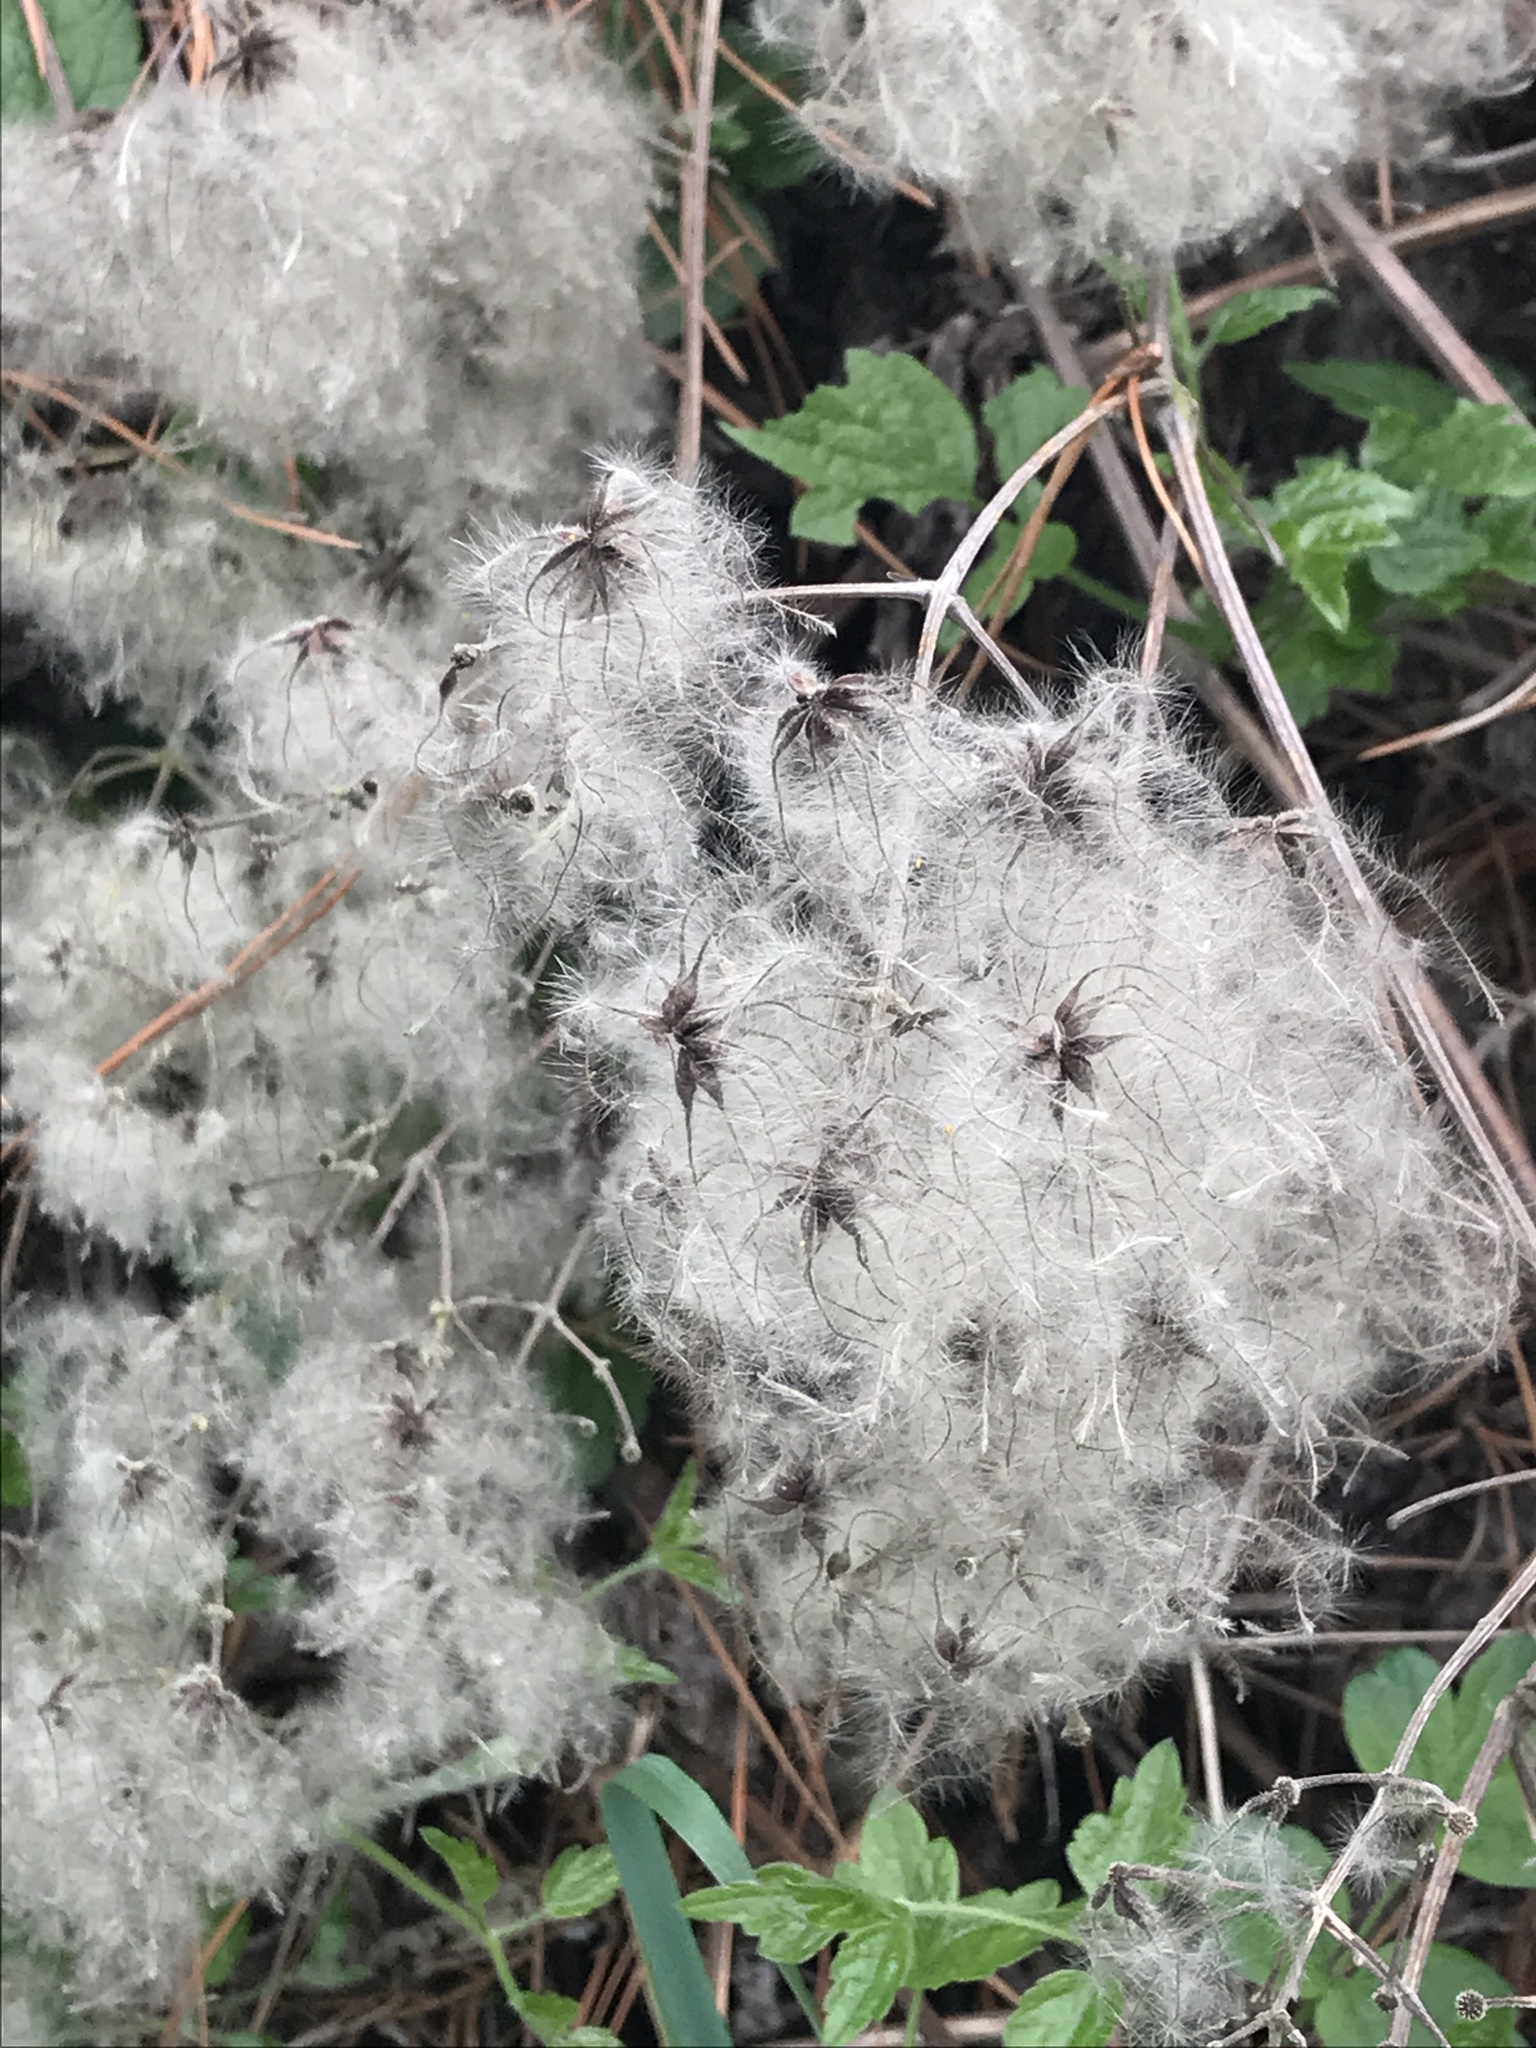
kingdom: Plantae
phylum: Tracheophyta
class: Magnoliopsida
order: Ranunculales
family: Ranunculaceae
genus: Clematis
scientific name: Clematis vitalba
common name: Evergreen clematis
